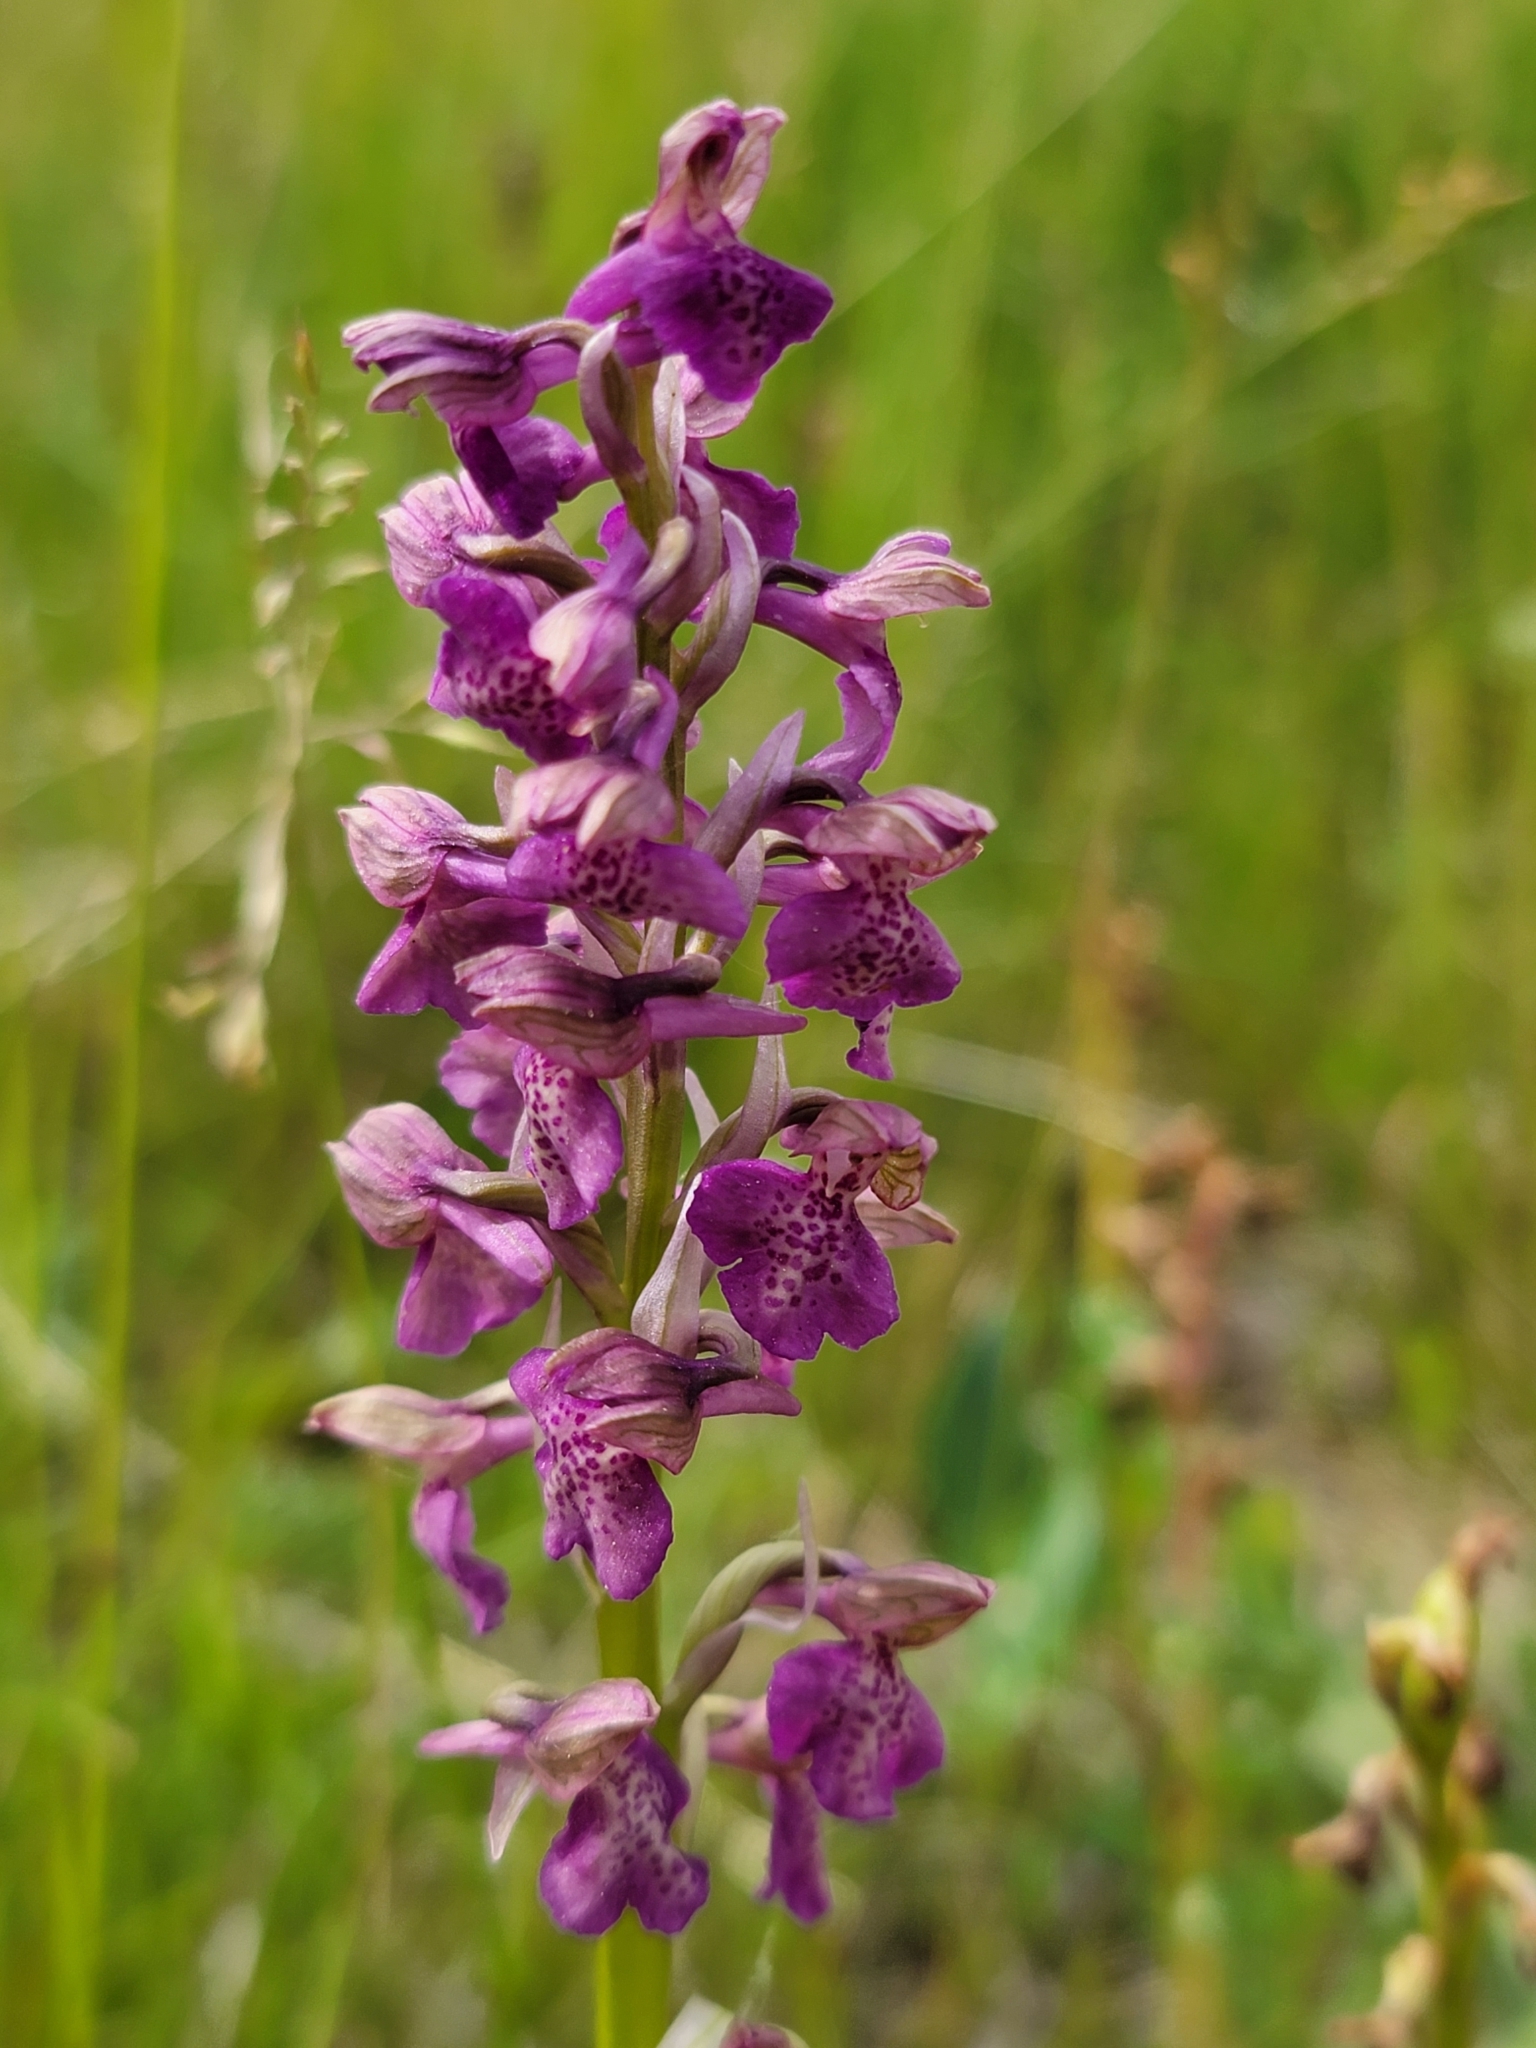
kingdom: Plantae
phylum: Tracheophyta
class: Liliopsida
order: Asparagales
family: Orchidaceae
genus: Anacamptis
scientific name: Anacamptis morio
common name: Green-winged orchid
